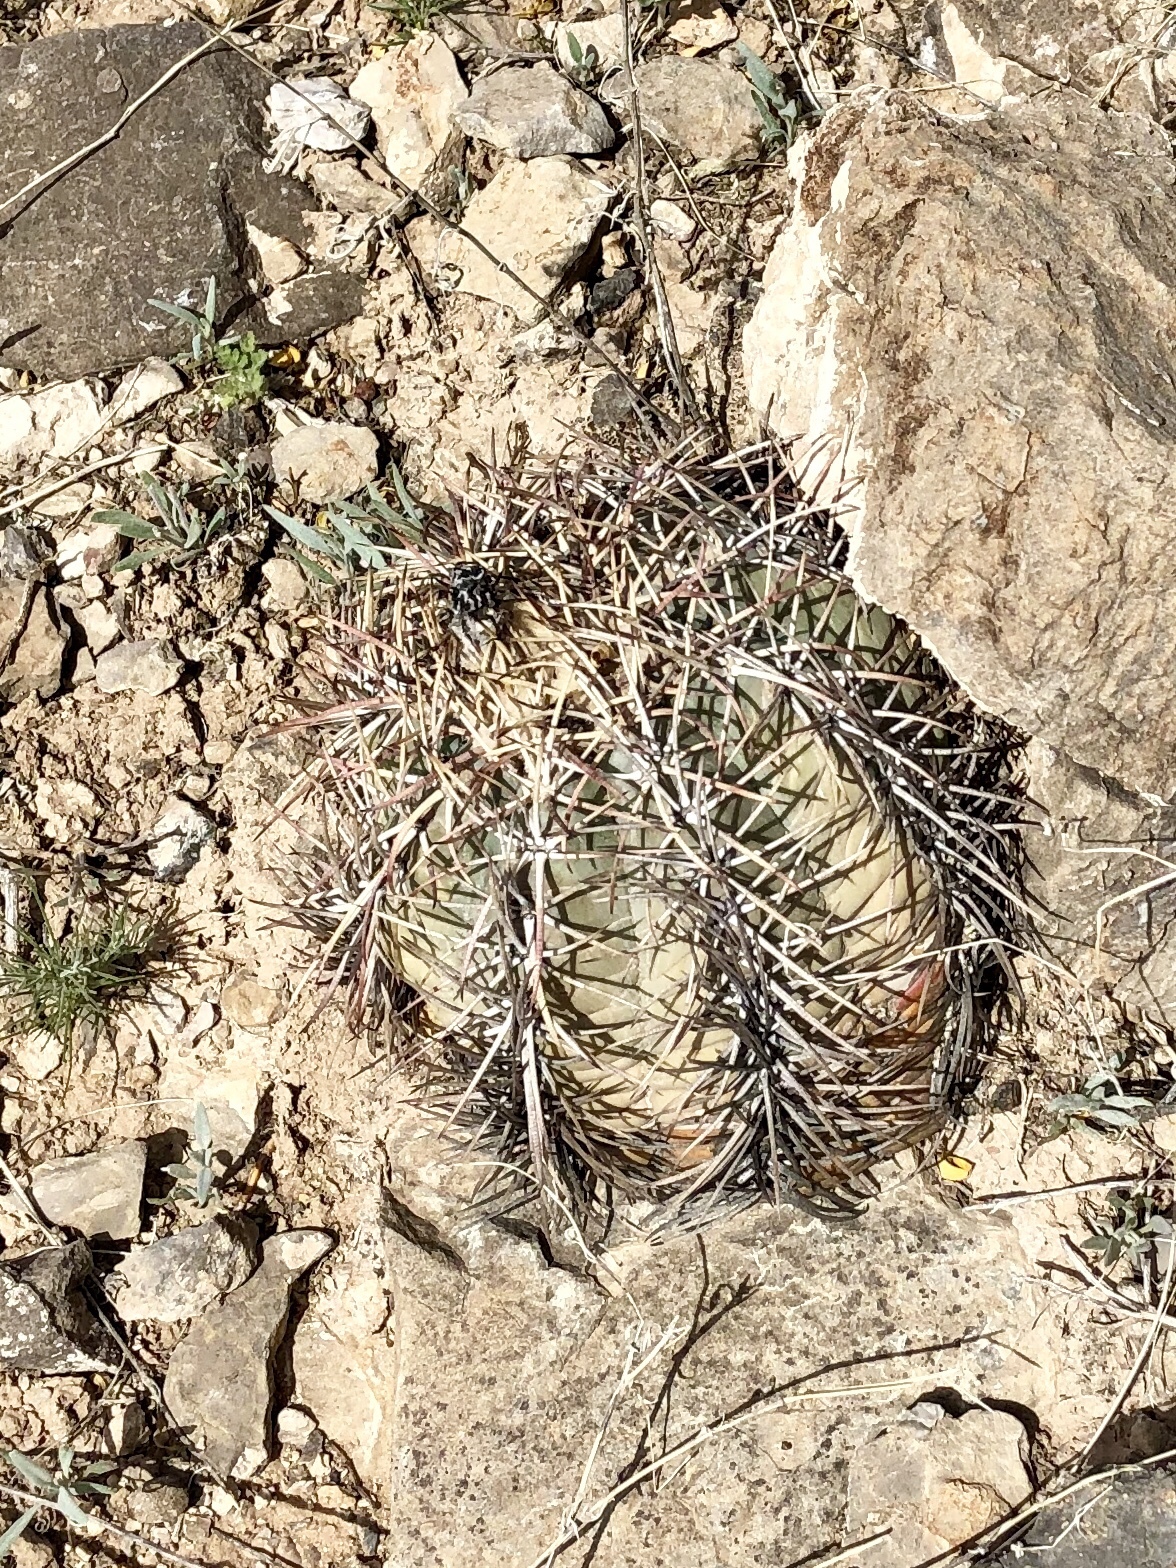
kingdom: Plantae
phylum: Tracheophyta
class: Magnoliopsida
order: Caryophyllales
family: Cactaceae
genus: Echinocactus
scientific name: Echinocactus horizonthalonius
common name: Devilshead
